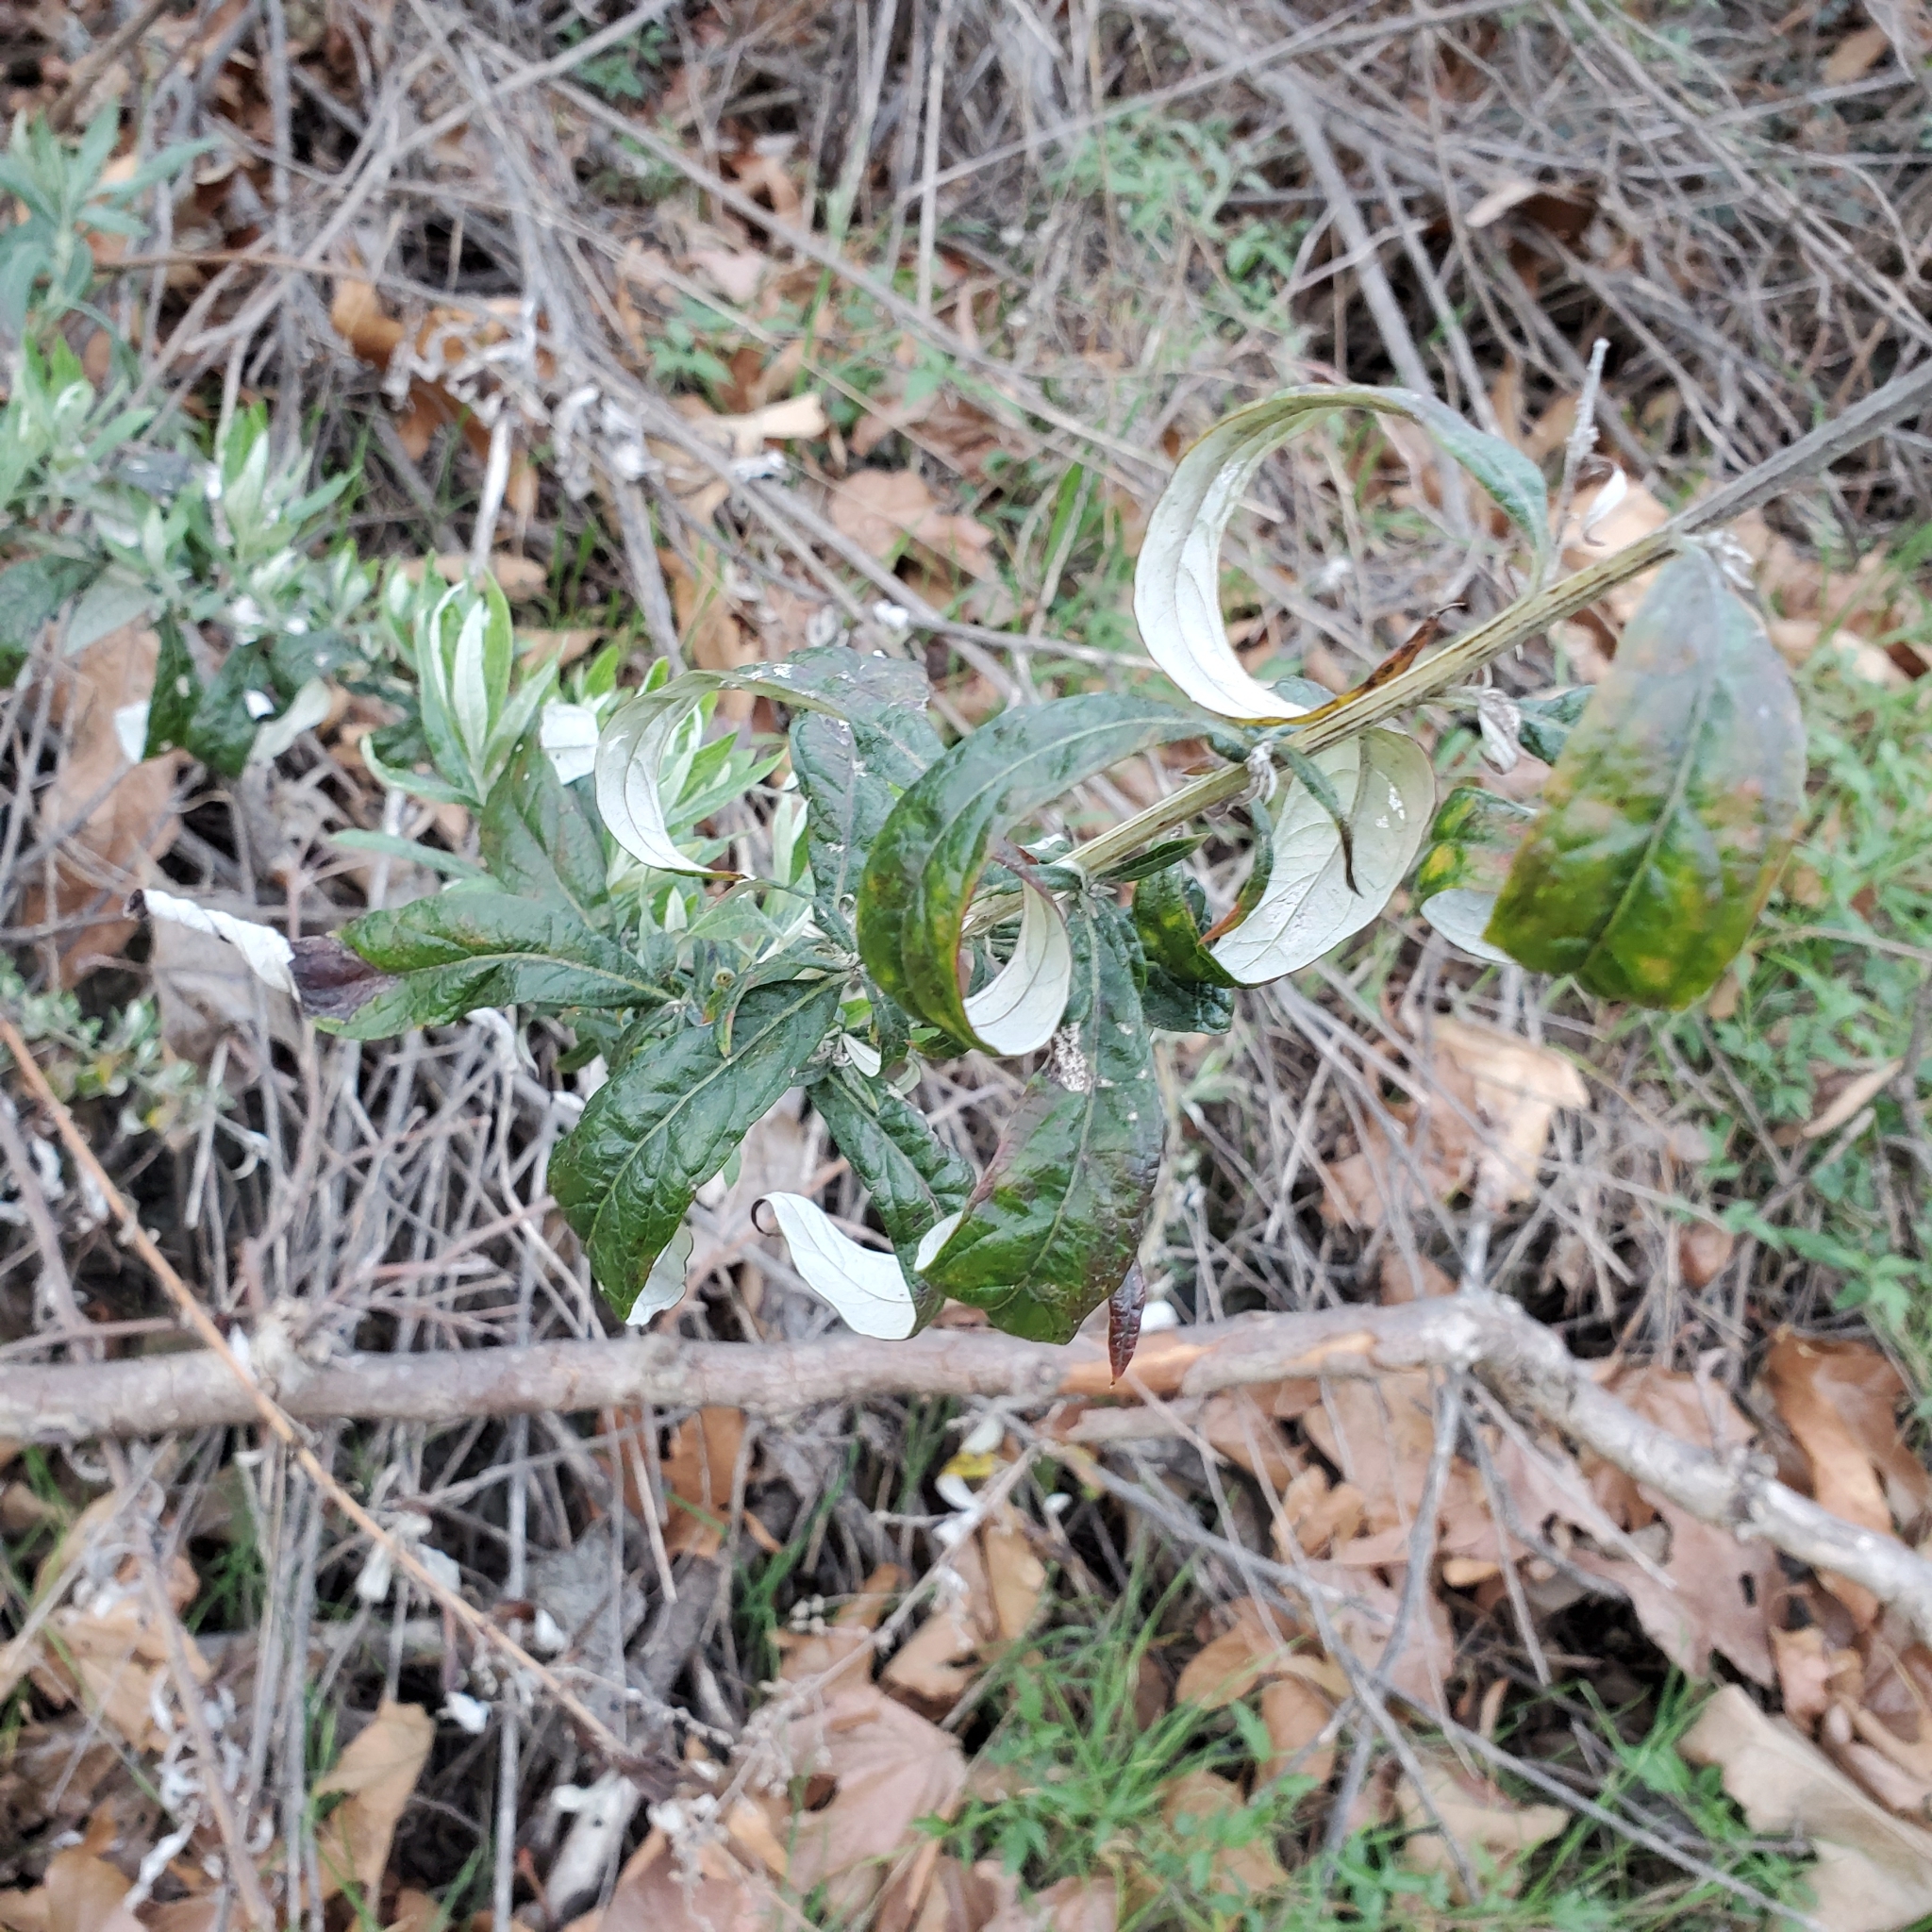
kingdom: Plantae
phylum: Tracheophyta
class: Magnoliopsida
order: Asterales
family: Asteraceae
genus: Artemisia
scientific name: Artemisia douglasiana
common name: Northwest mugwort
